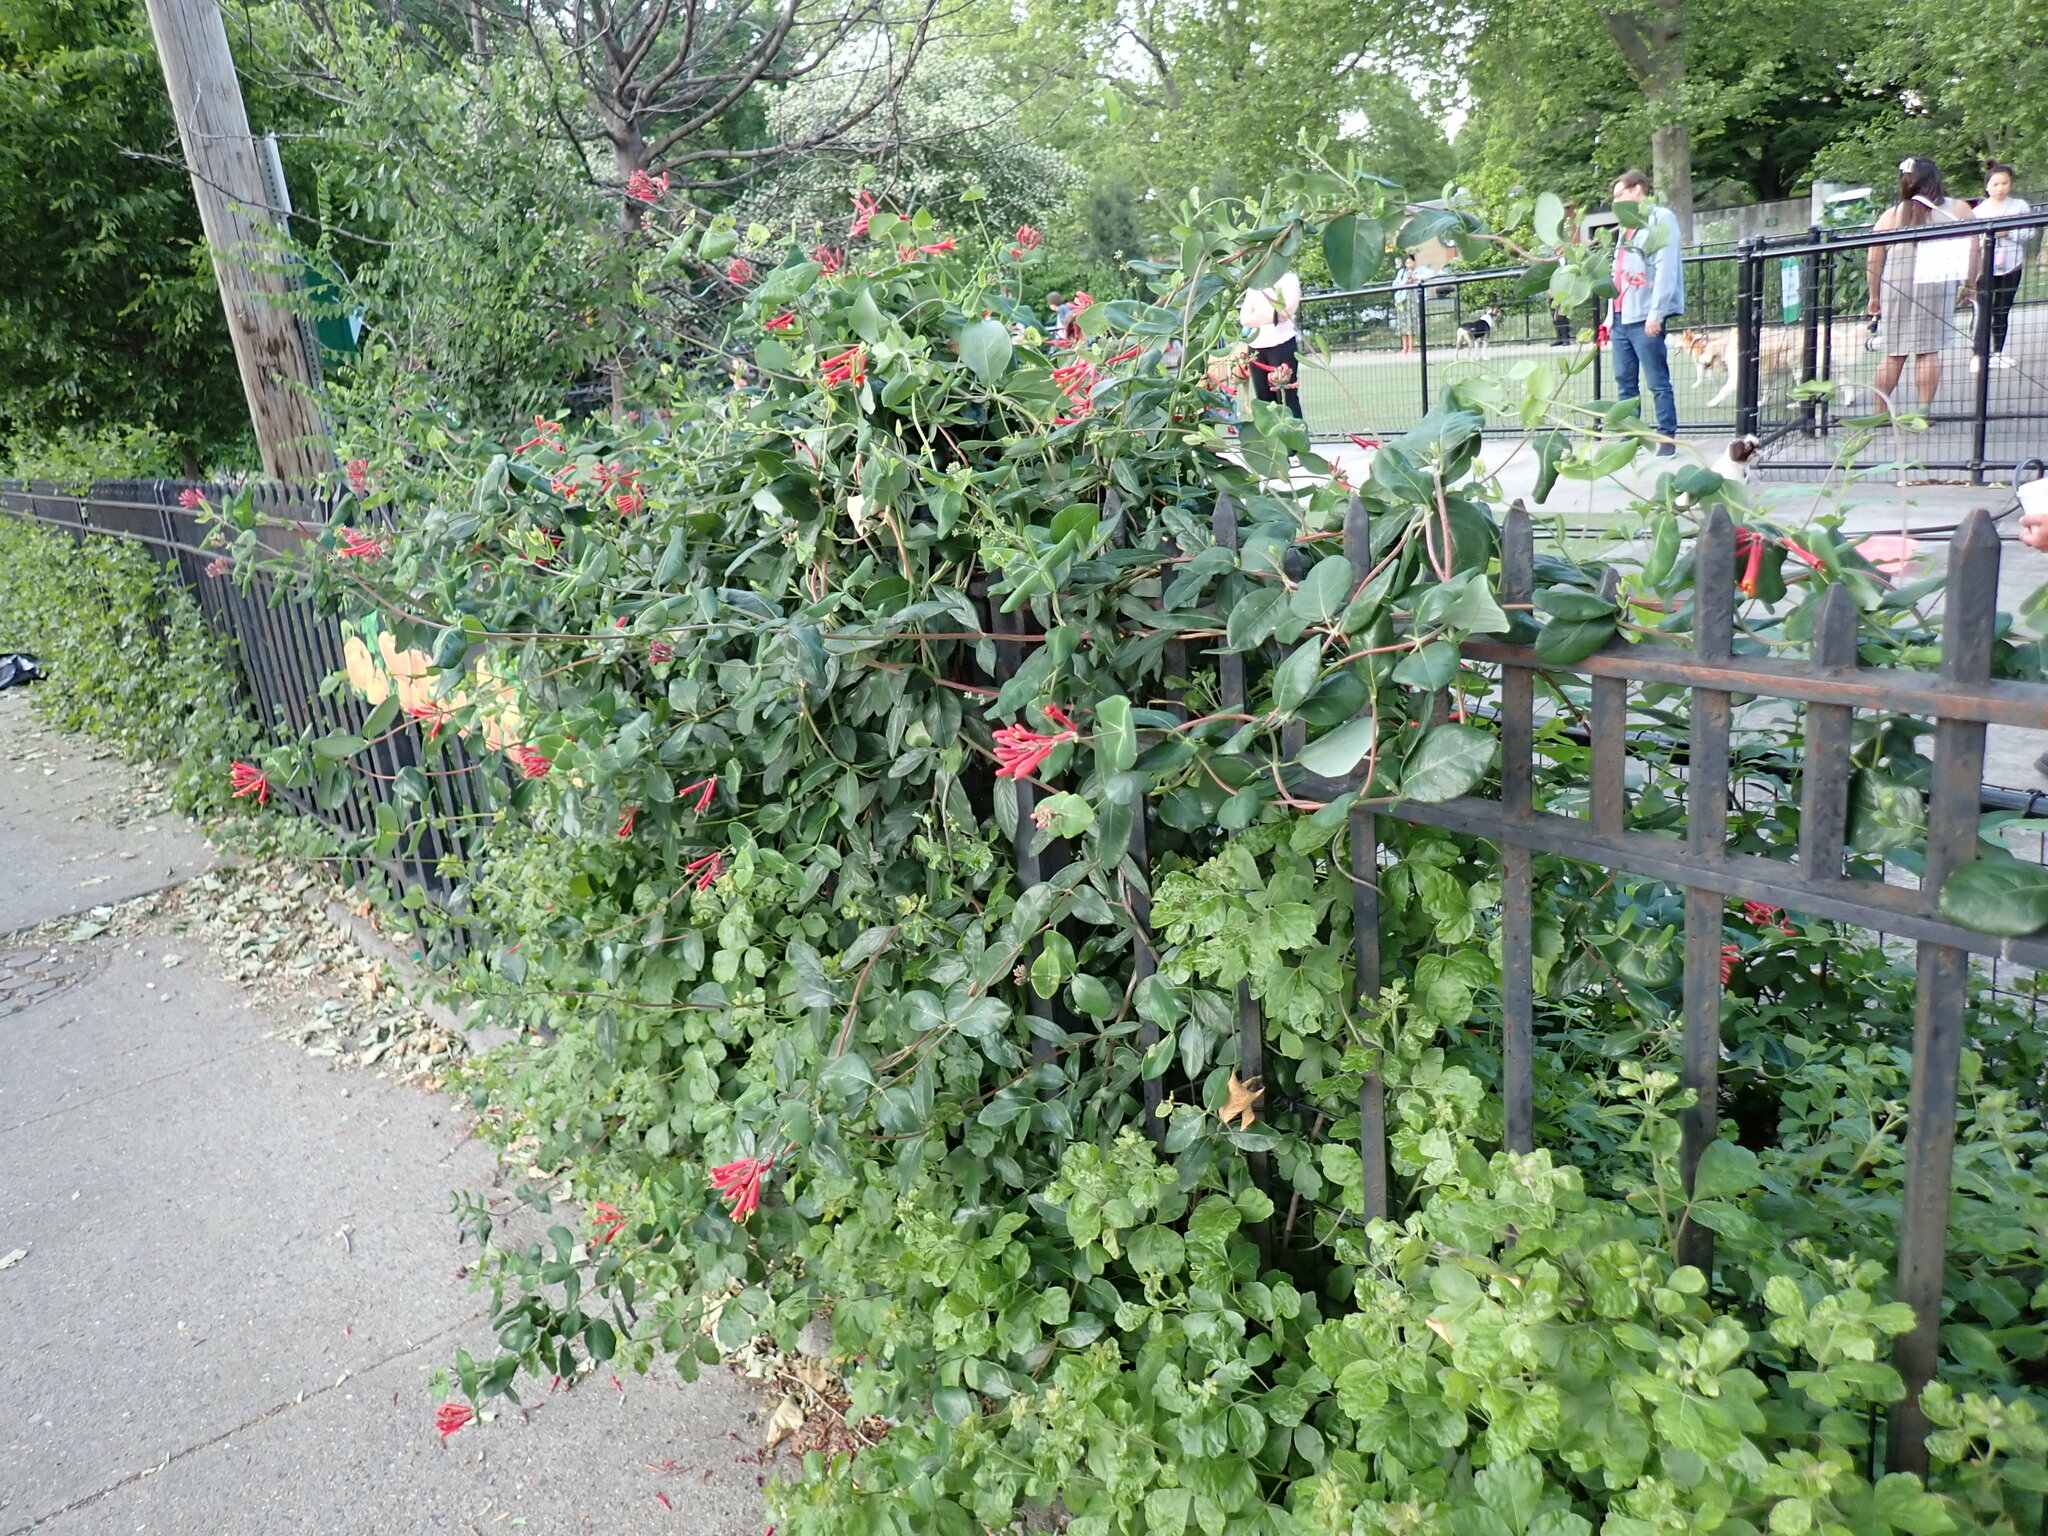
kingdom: Plantae
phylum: Tracheophyta
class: Magnoliopsida
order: Dipsacales
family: Caprifoliaceae
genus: Lonicera
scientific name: Lonicera sempervirens
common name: Coral honeysuckle
